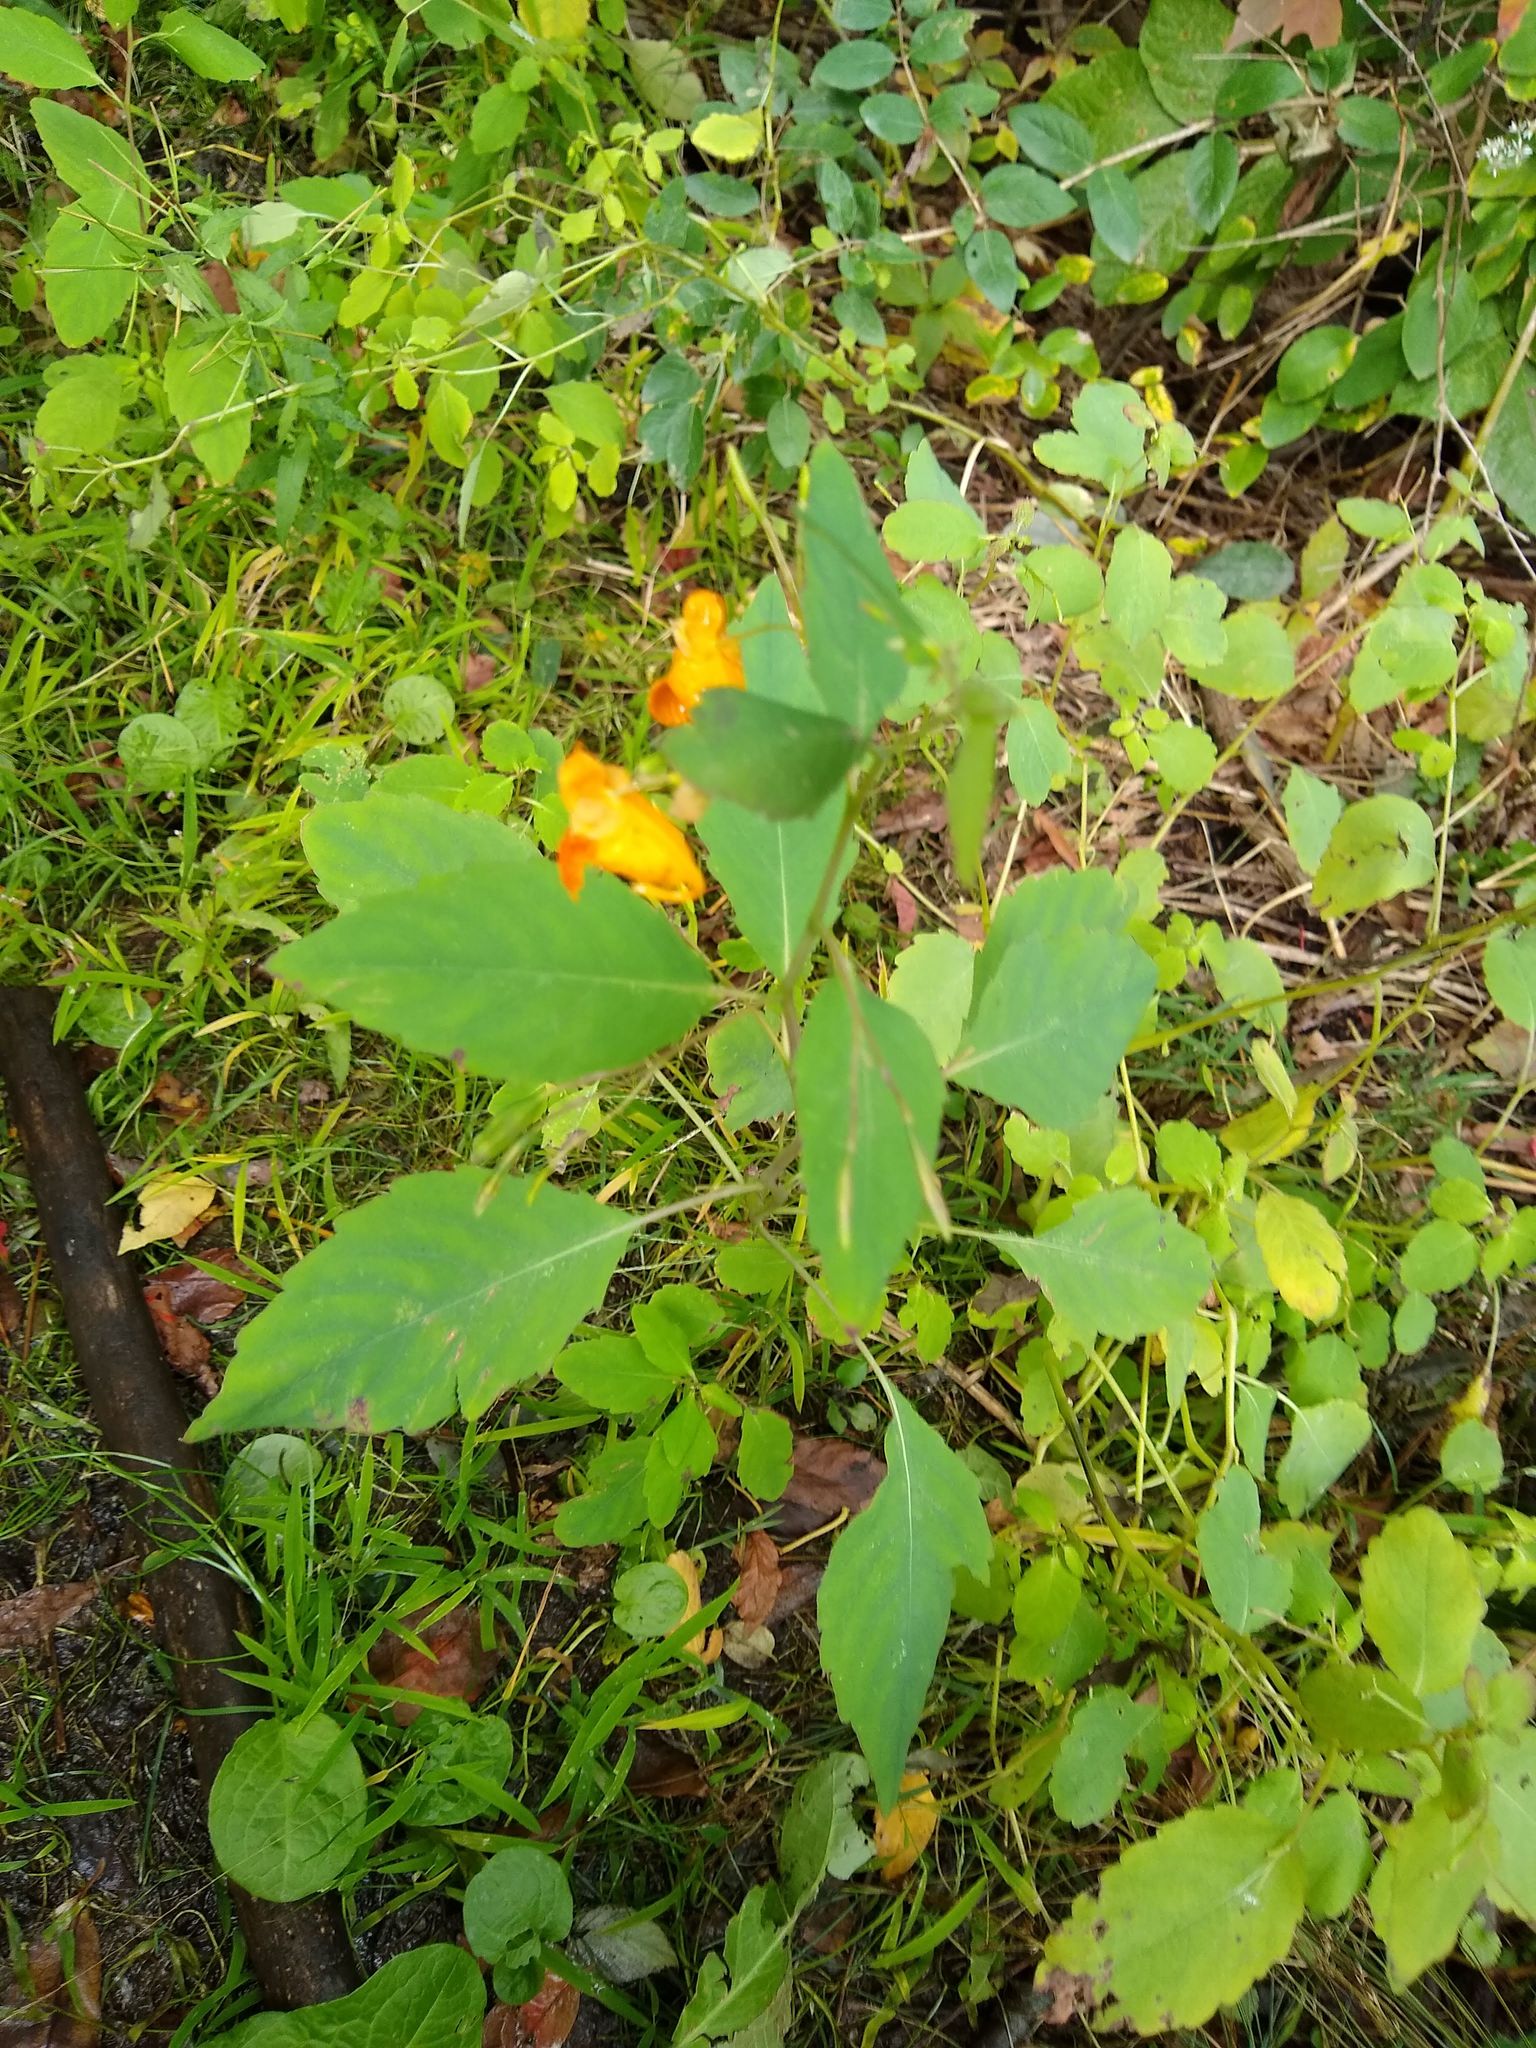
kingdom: Plantae
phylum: Tracheophyta
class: Magnoliopsida
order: Ericales
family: Balsaminaceae
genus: Impatiens
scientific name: Impatiens capensis
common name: Orange balsam
